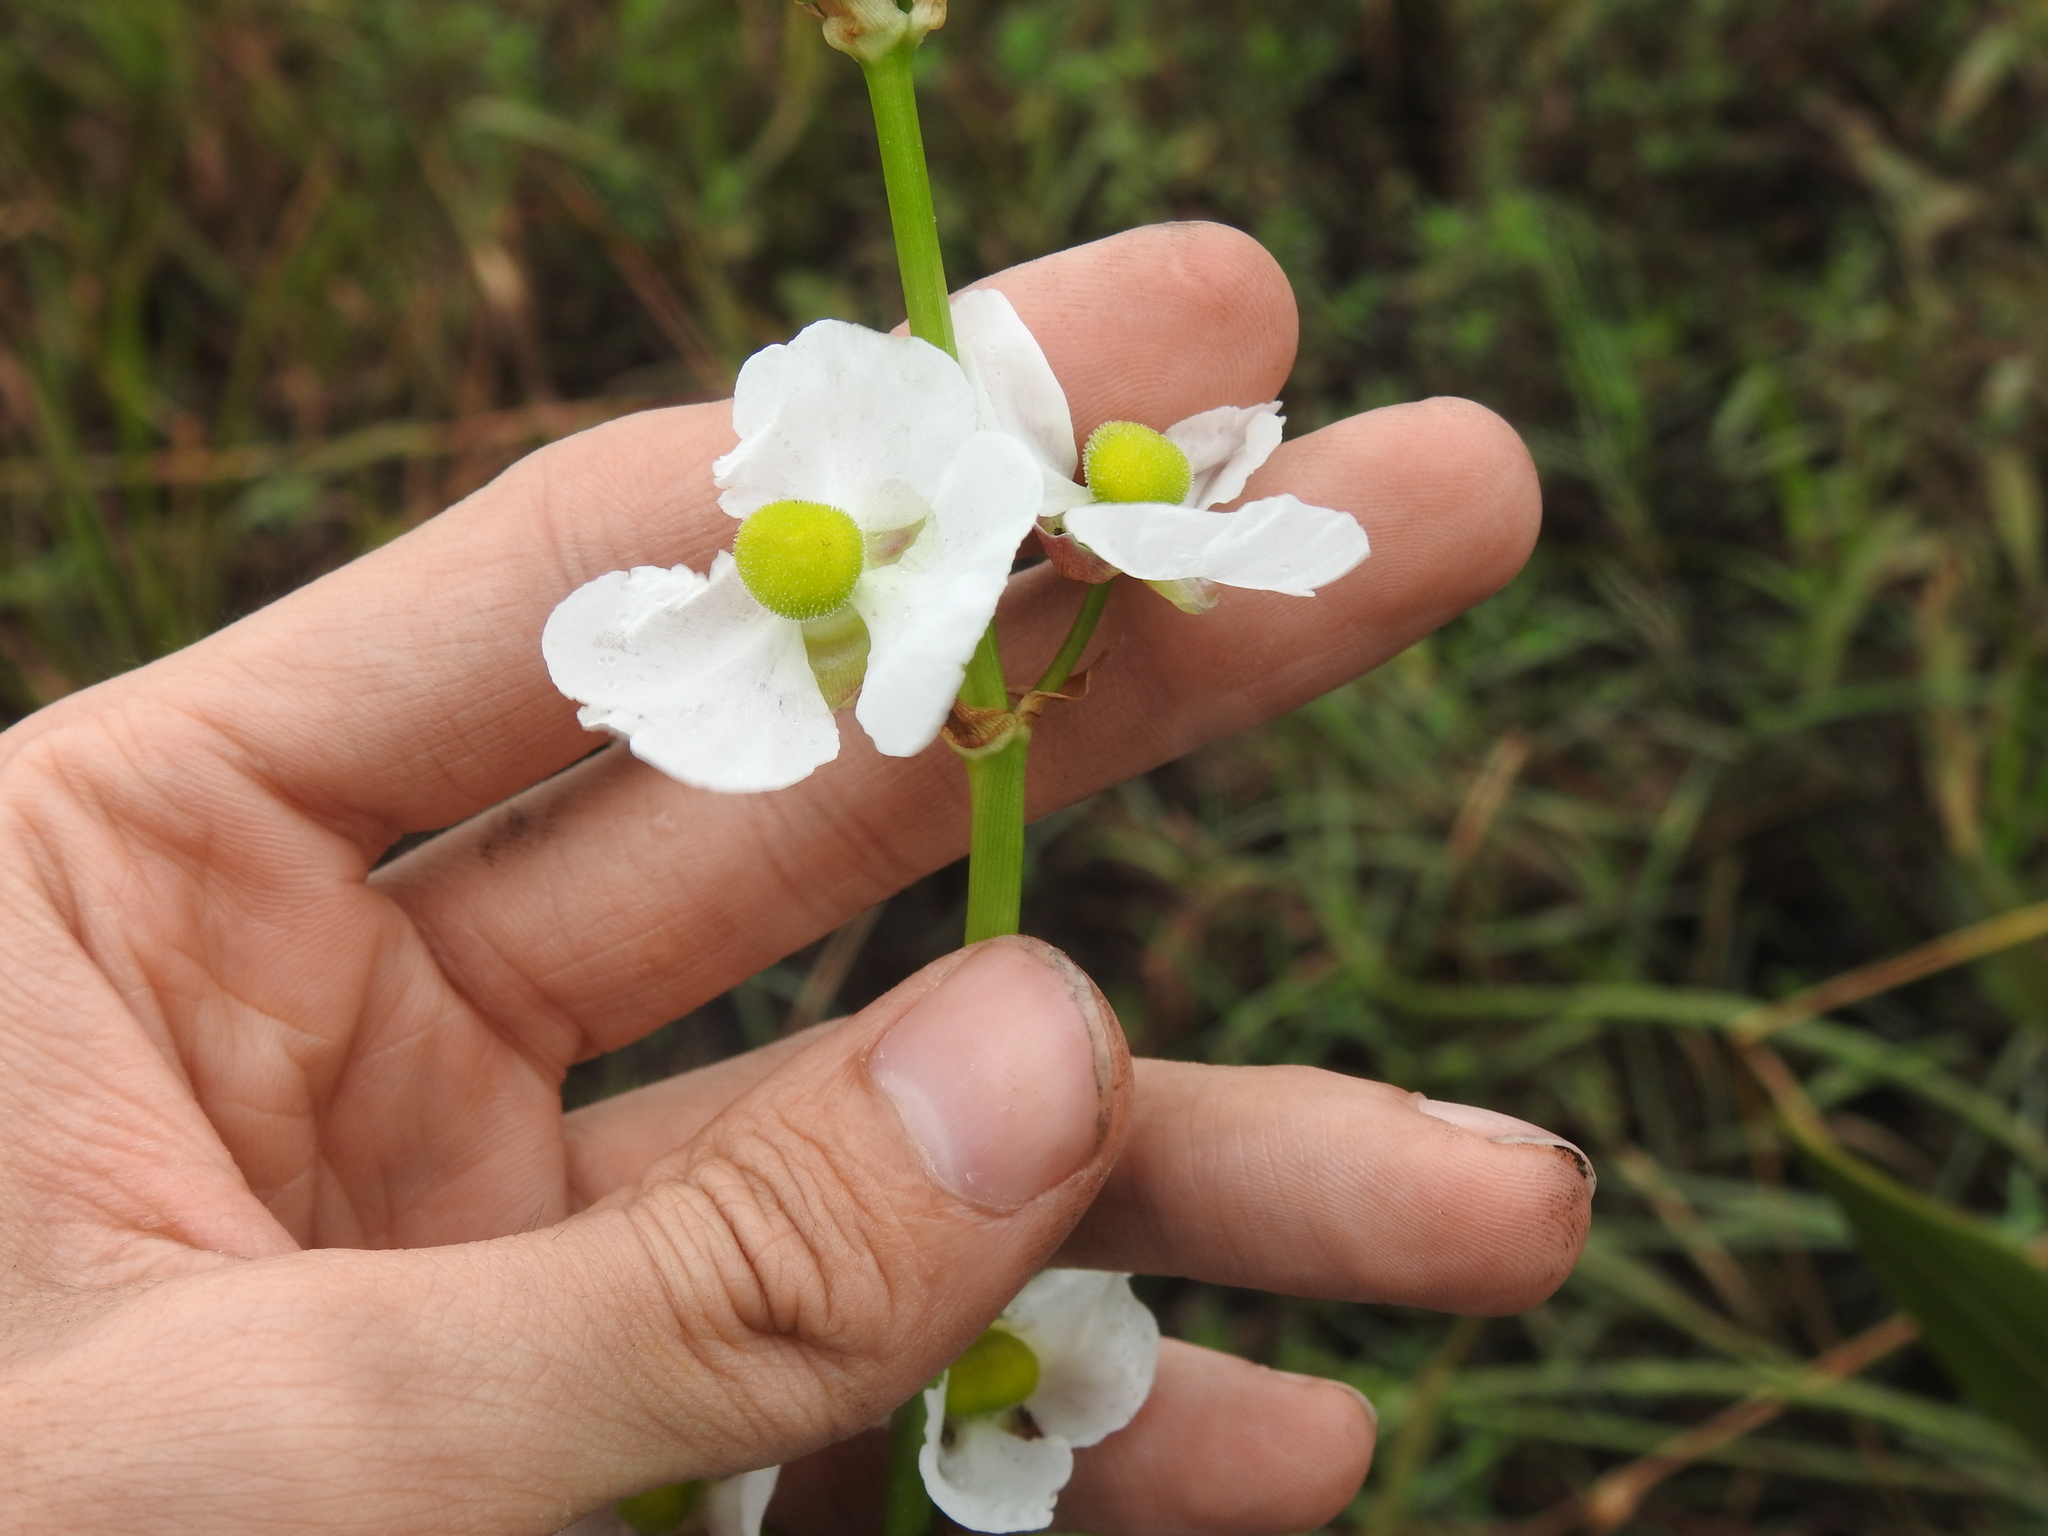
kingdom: Plantae
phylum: Tracheophyta
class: Liliopsida
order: Alismatales
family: Alismataceae
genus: Sagittaria
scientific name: Sagittaria lancifolia
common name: Lance-leaf arrowhead
